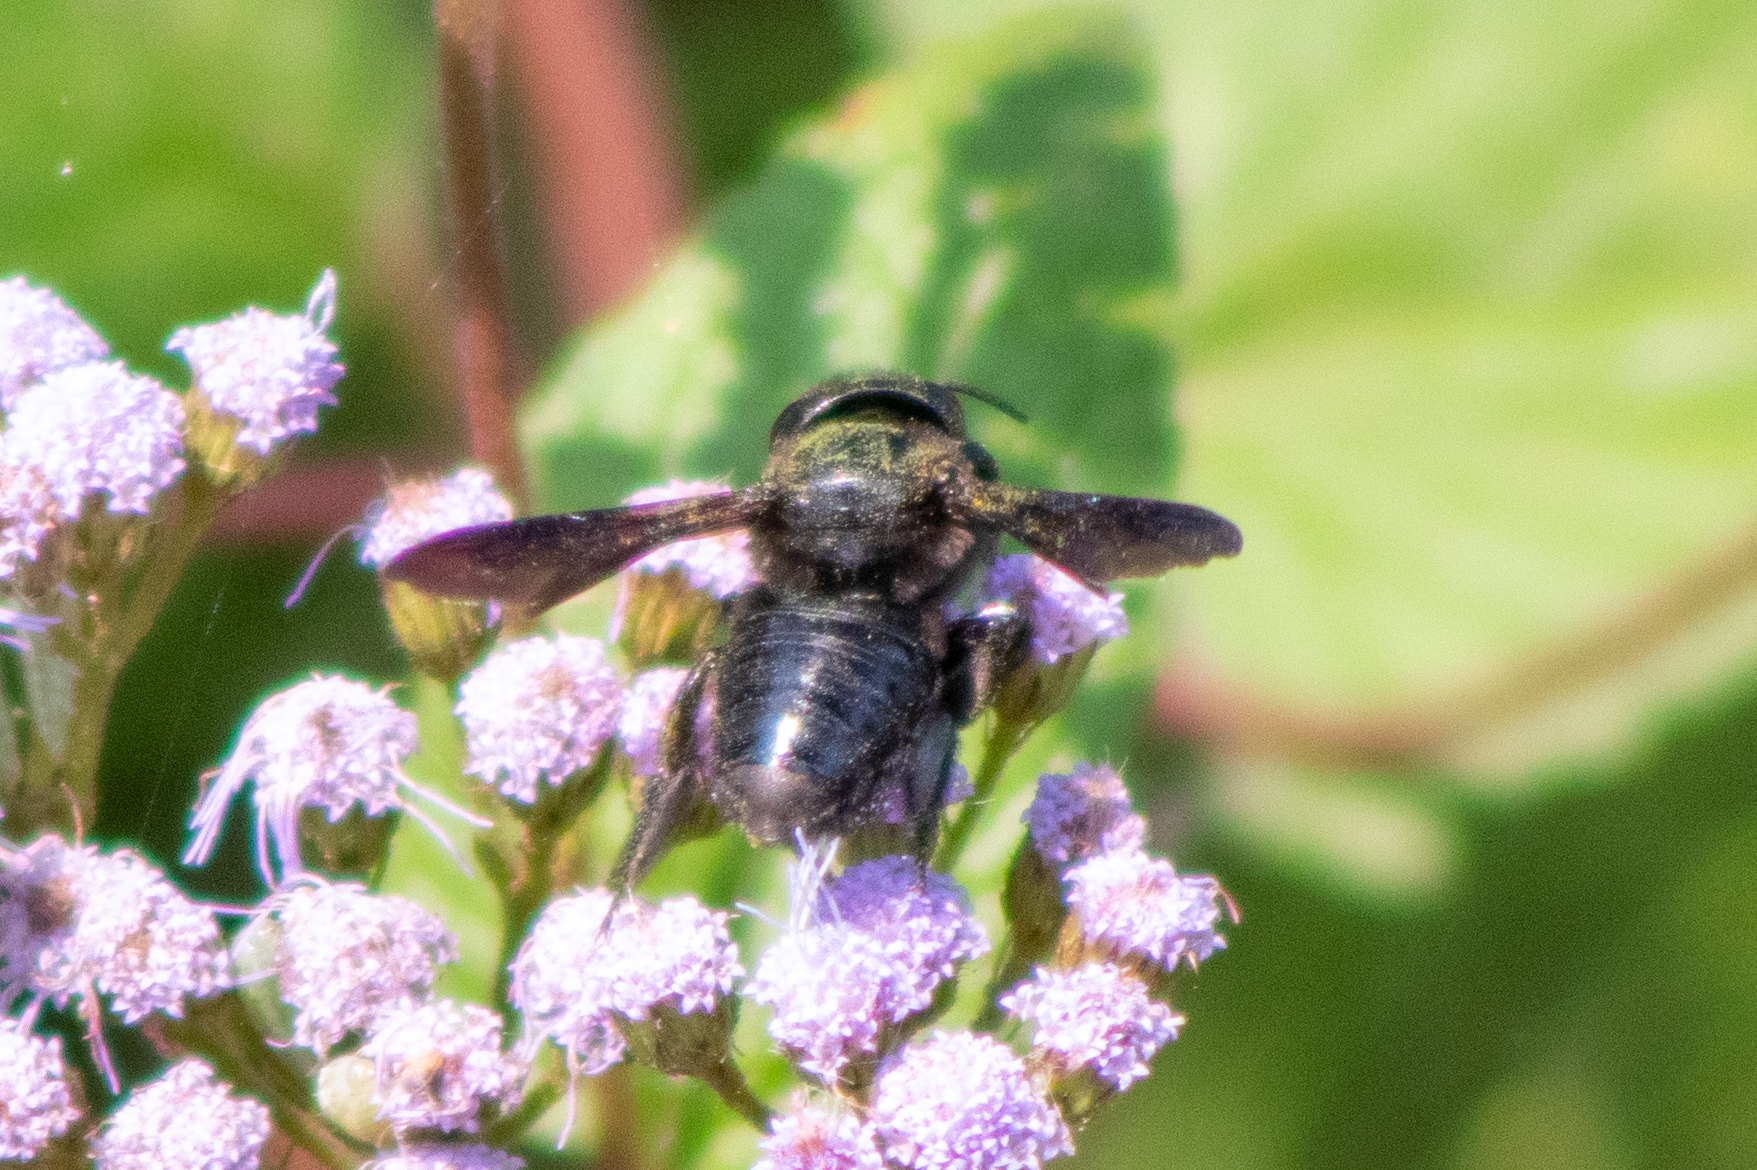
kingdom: Animalia
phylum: Arthropoda
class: Insecta
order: Hymenoptera
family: Megachilidae
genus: Megachile
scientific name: Megachile xylocopoides
